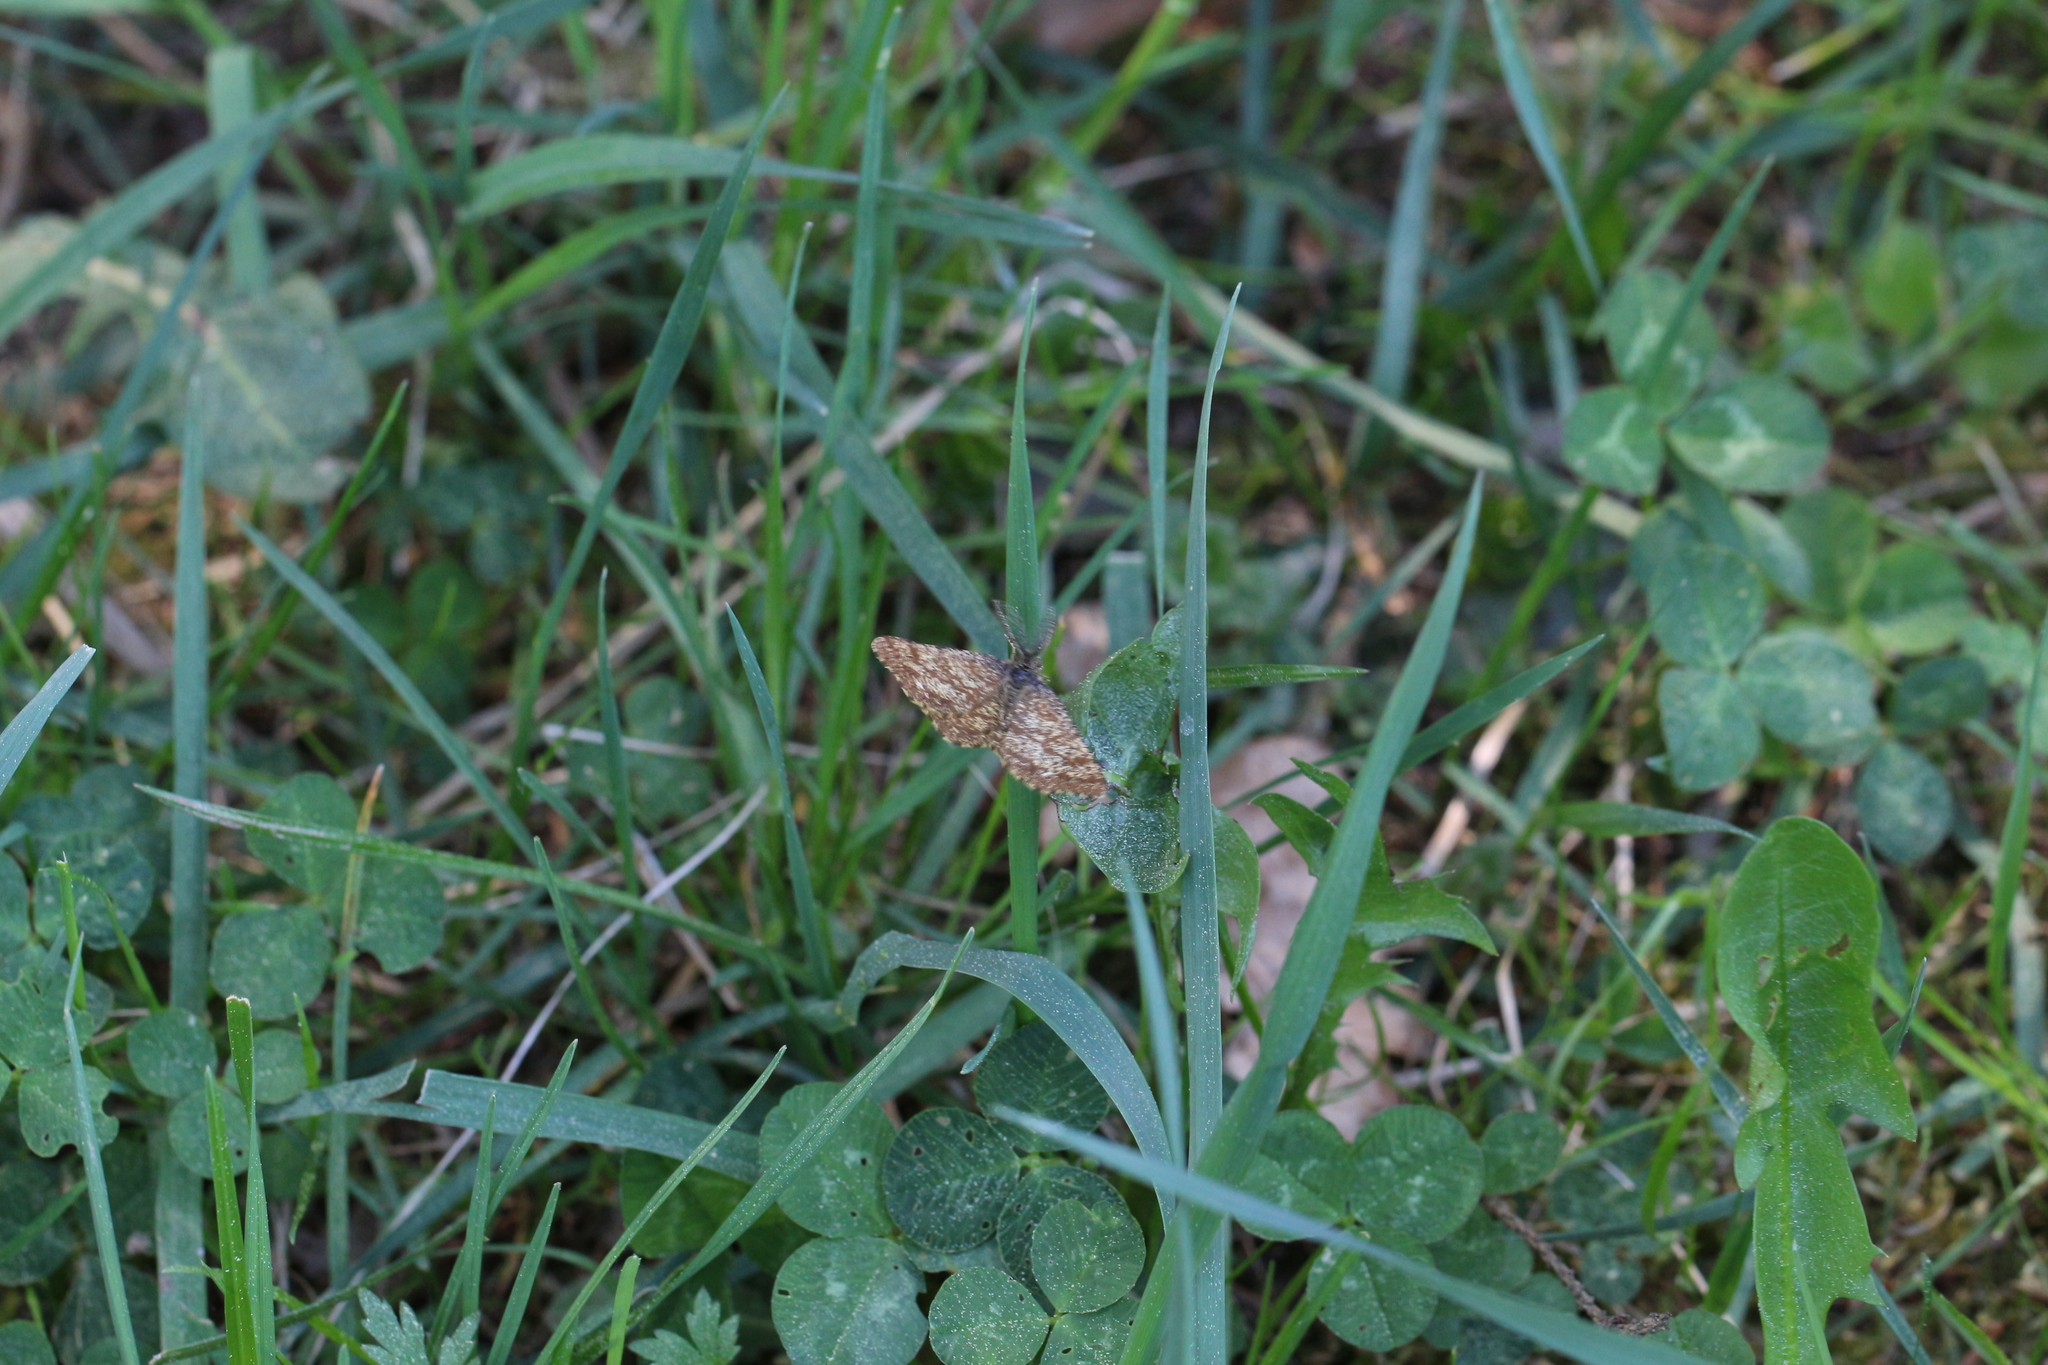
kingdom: Animalia
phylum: Arthropoda
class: Insecta
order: Lepidoptera
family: Geometridae
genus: Ematurga
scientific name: Ematurga atomaria
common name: Common heath
